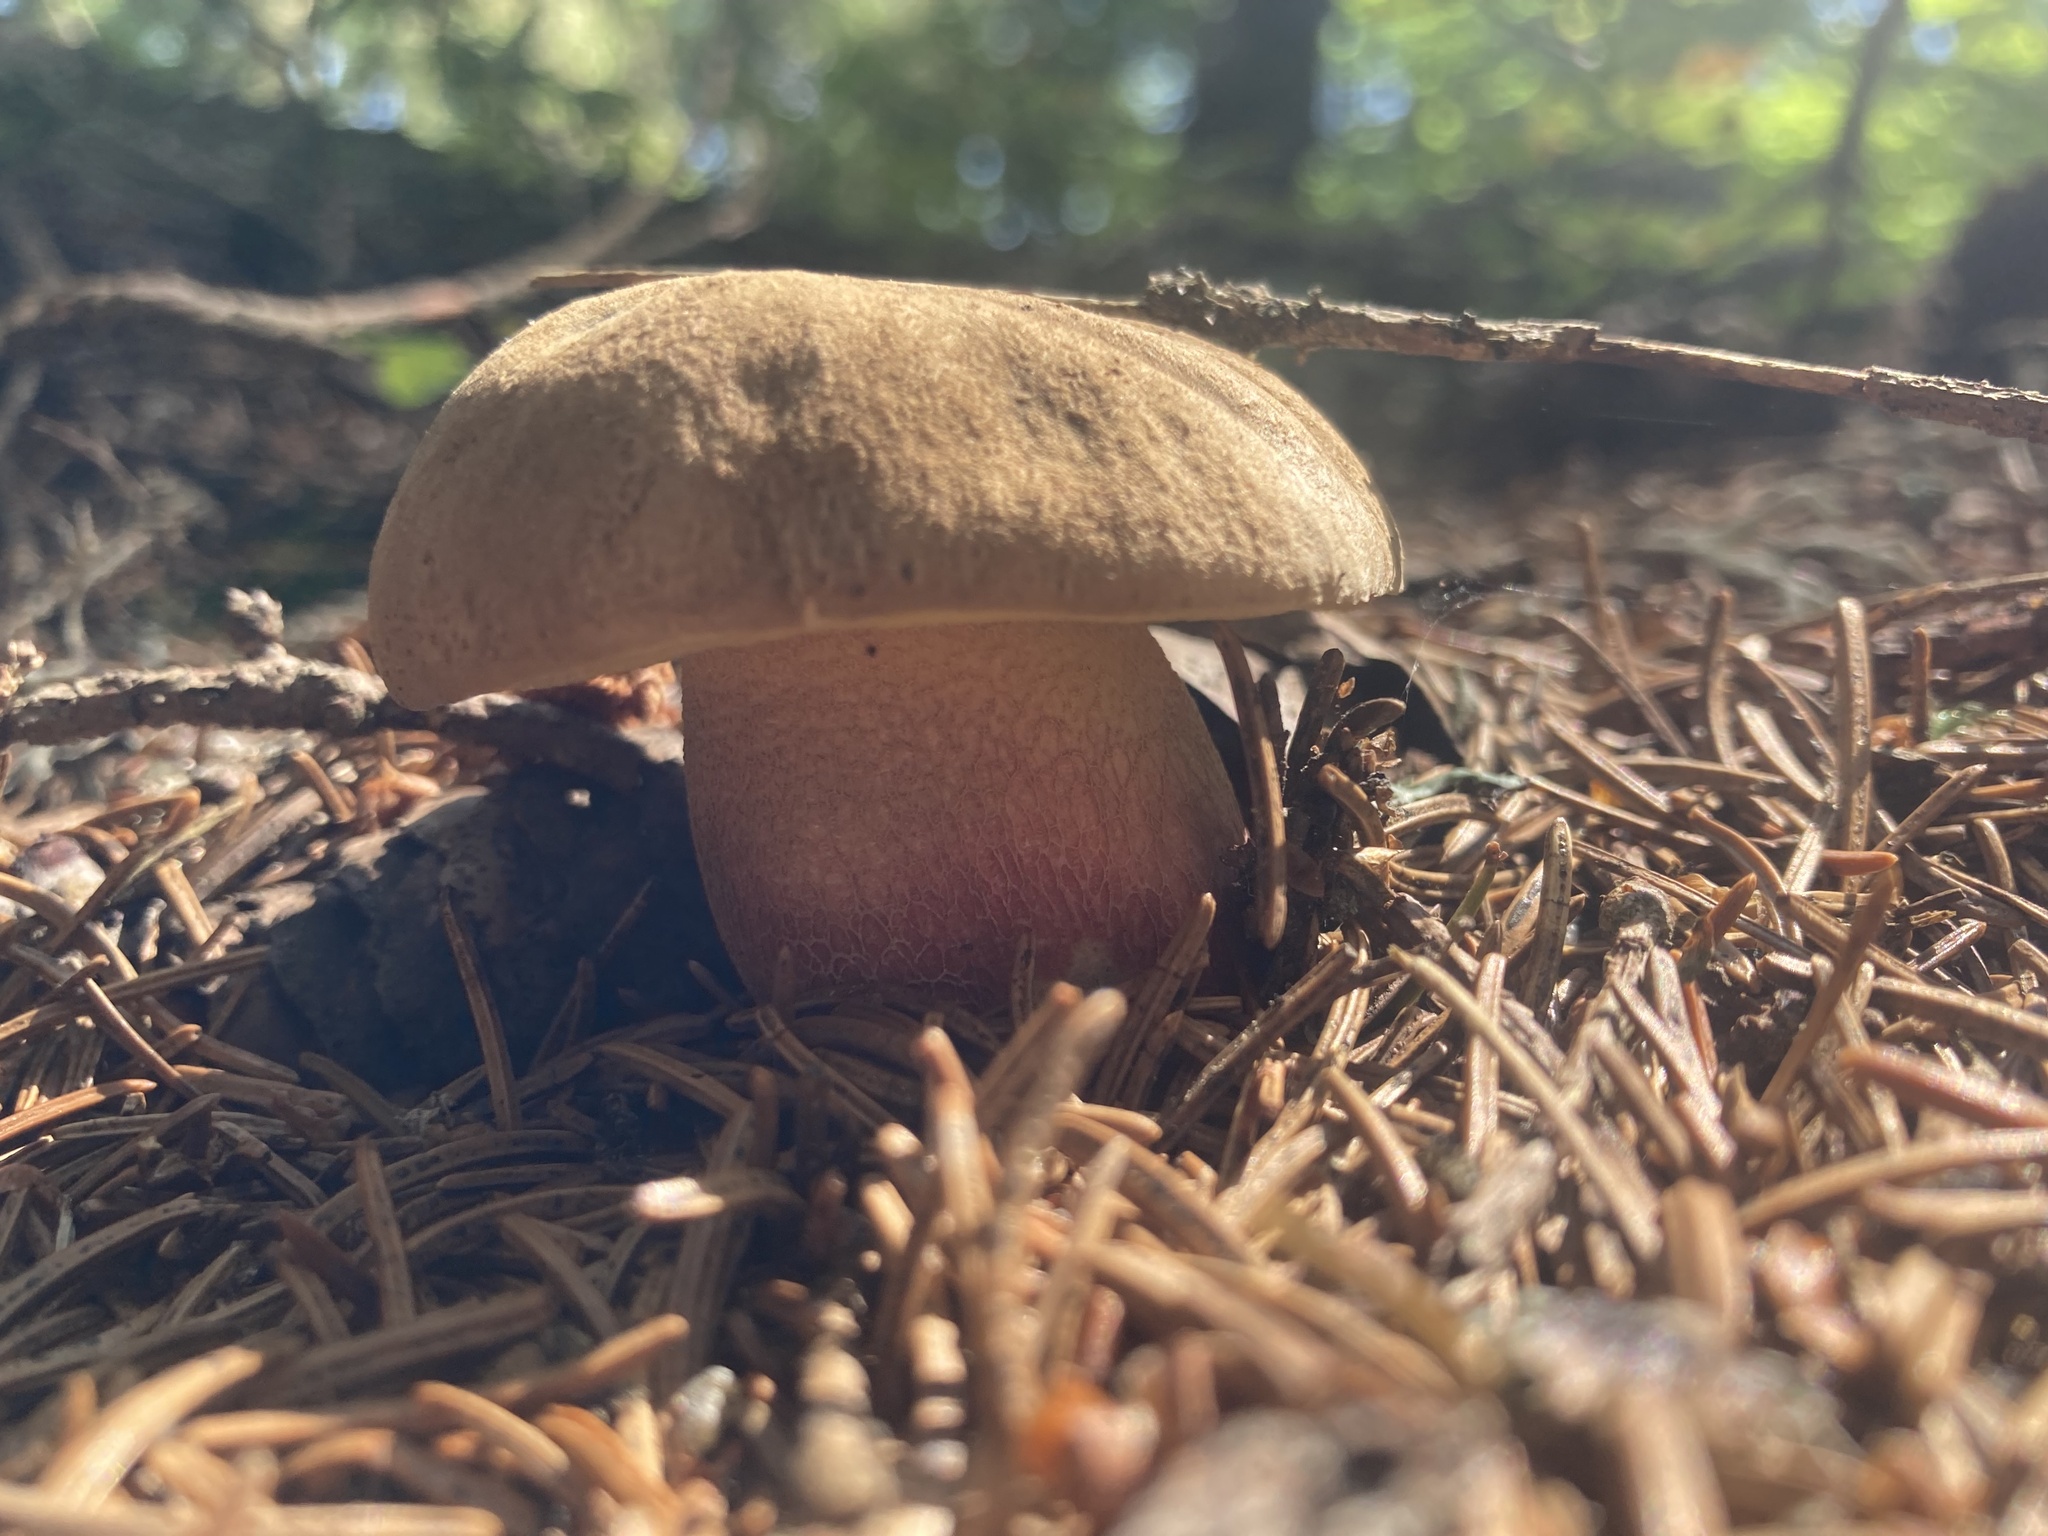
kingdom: Fungi
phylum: Basidiomycota
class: Agaricomycetes
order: Boletales
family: Boletaceae
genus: Caloboletus
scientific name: Caloboletus calopus
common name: Bitter beech bolete
